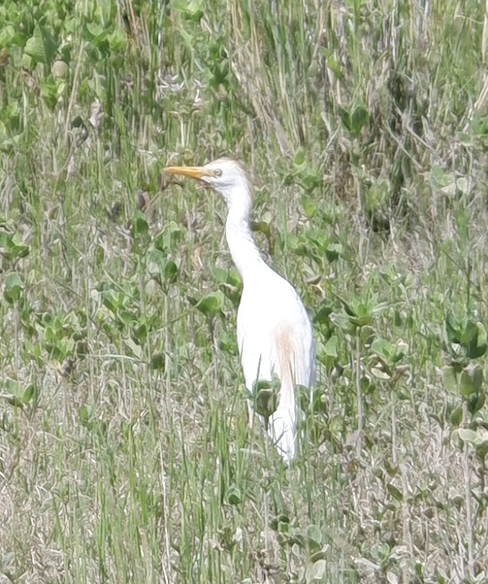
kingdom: Animalia
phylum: Chordata
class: Aves
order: Pelecaniformes
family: Ardeidae
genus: Bubulcus
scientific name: Bubulcus ibis
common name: Cattle egret
